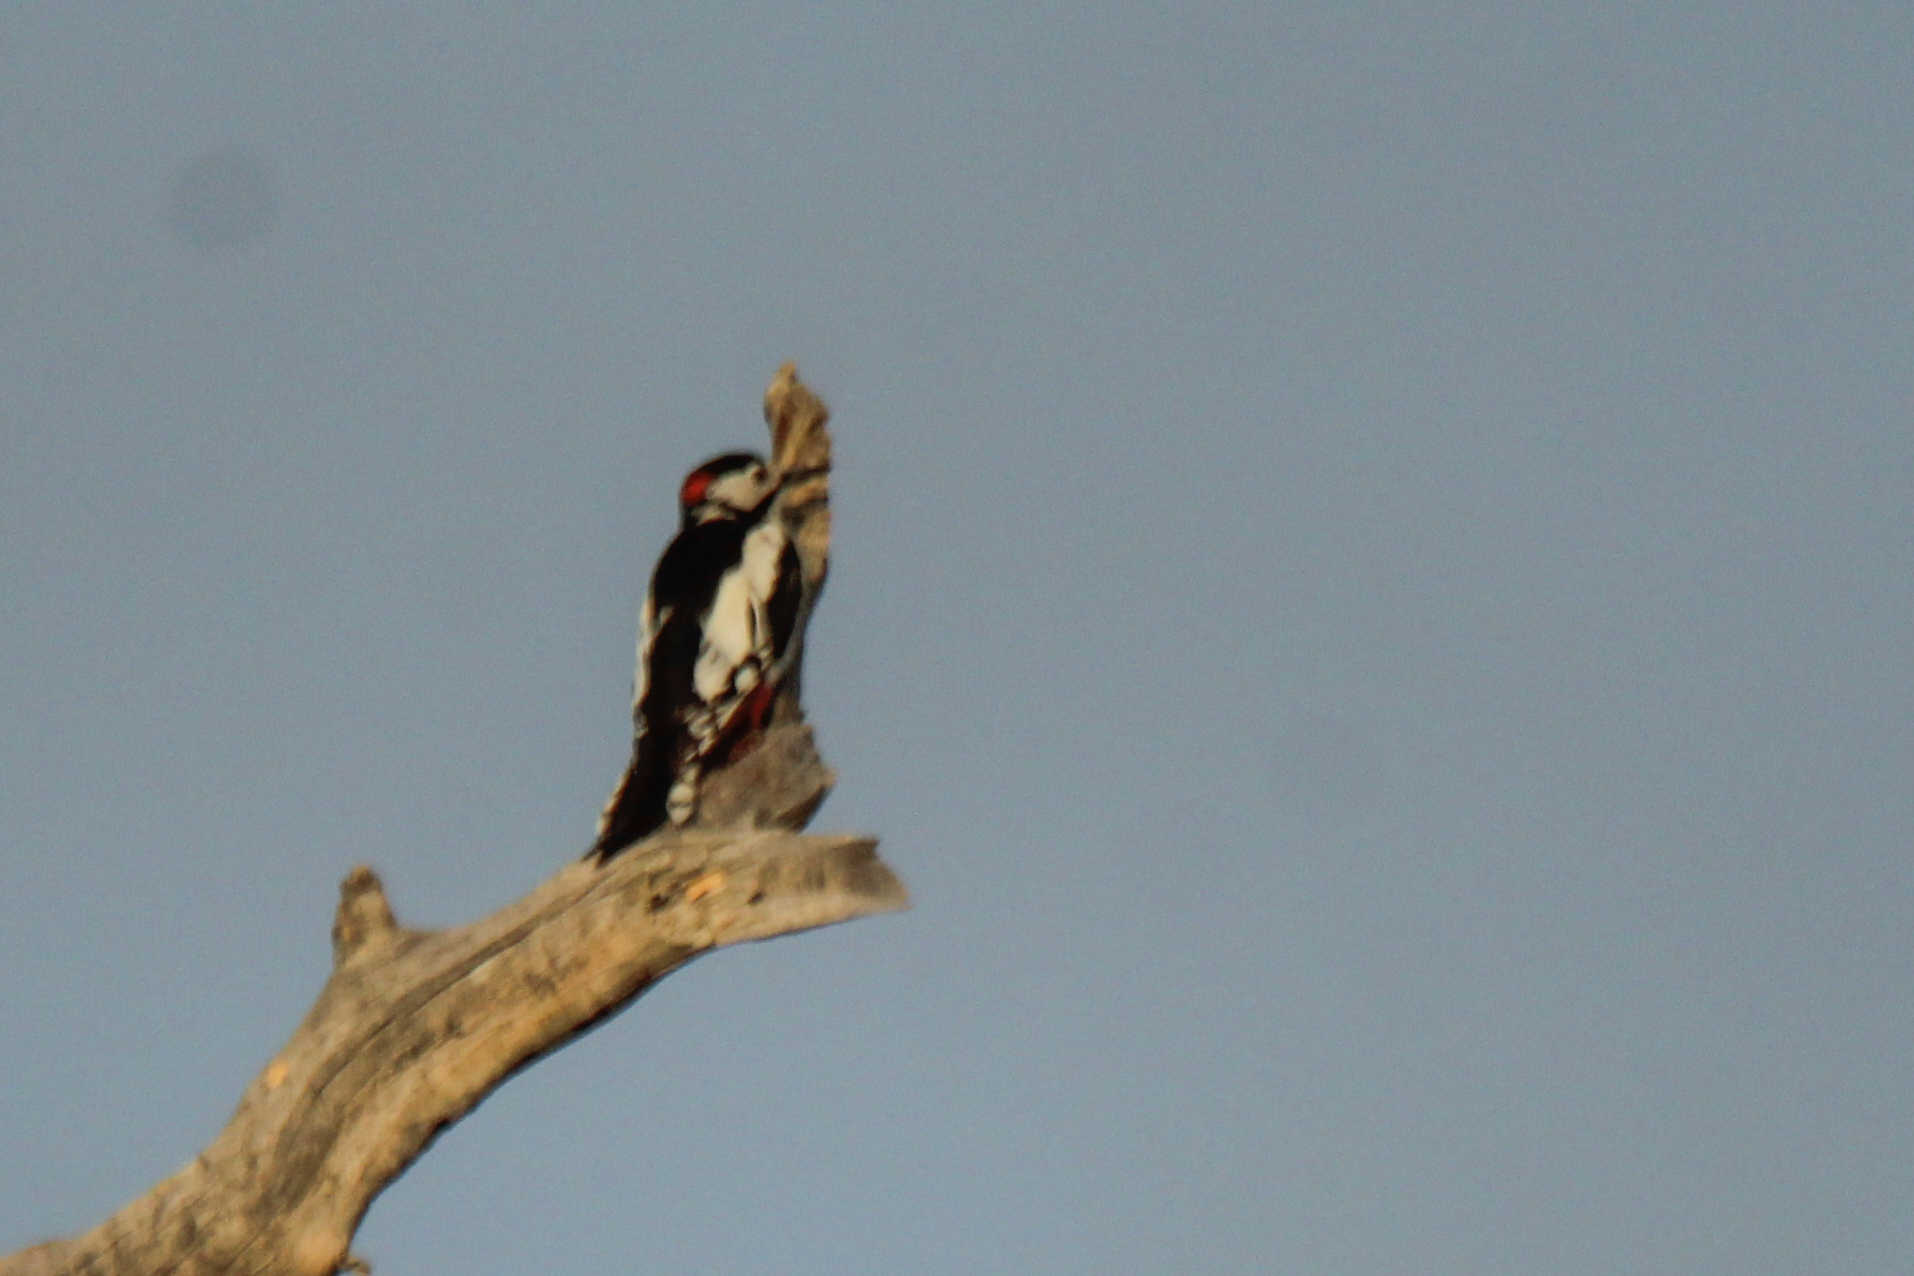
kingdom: Animalia
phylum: Chordata
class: Aves
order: Piciformes
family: Picidae
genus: Dendrocopos
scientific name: Dendrocopos leucopterus
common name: White-winged woodpecker
